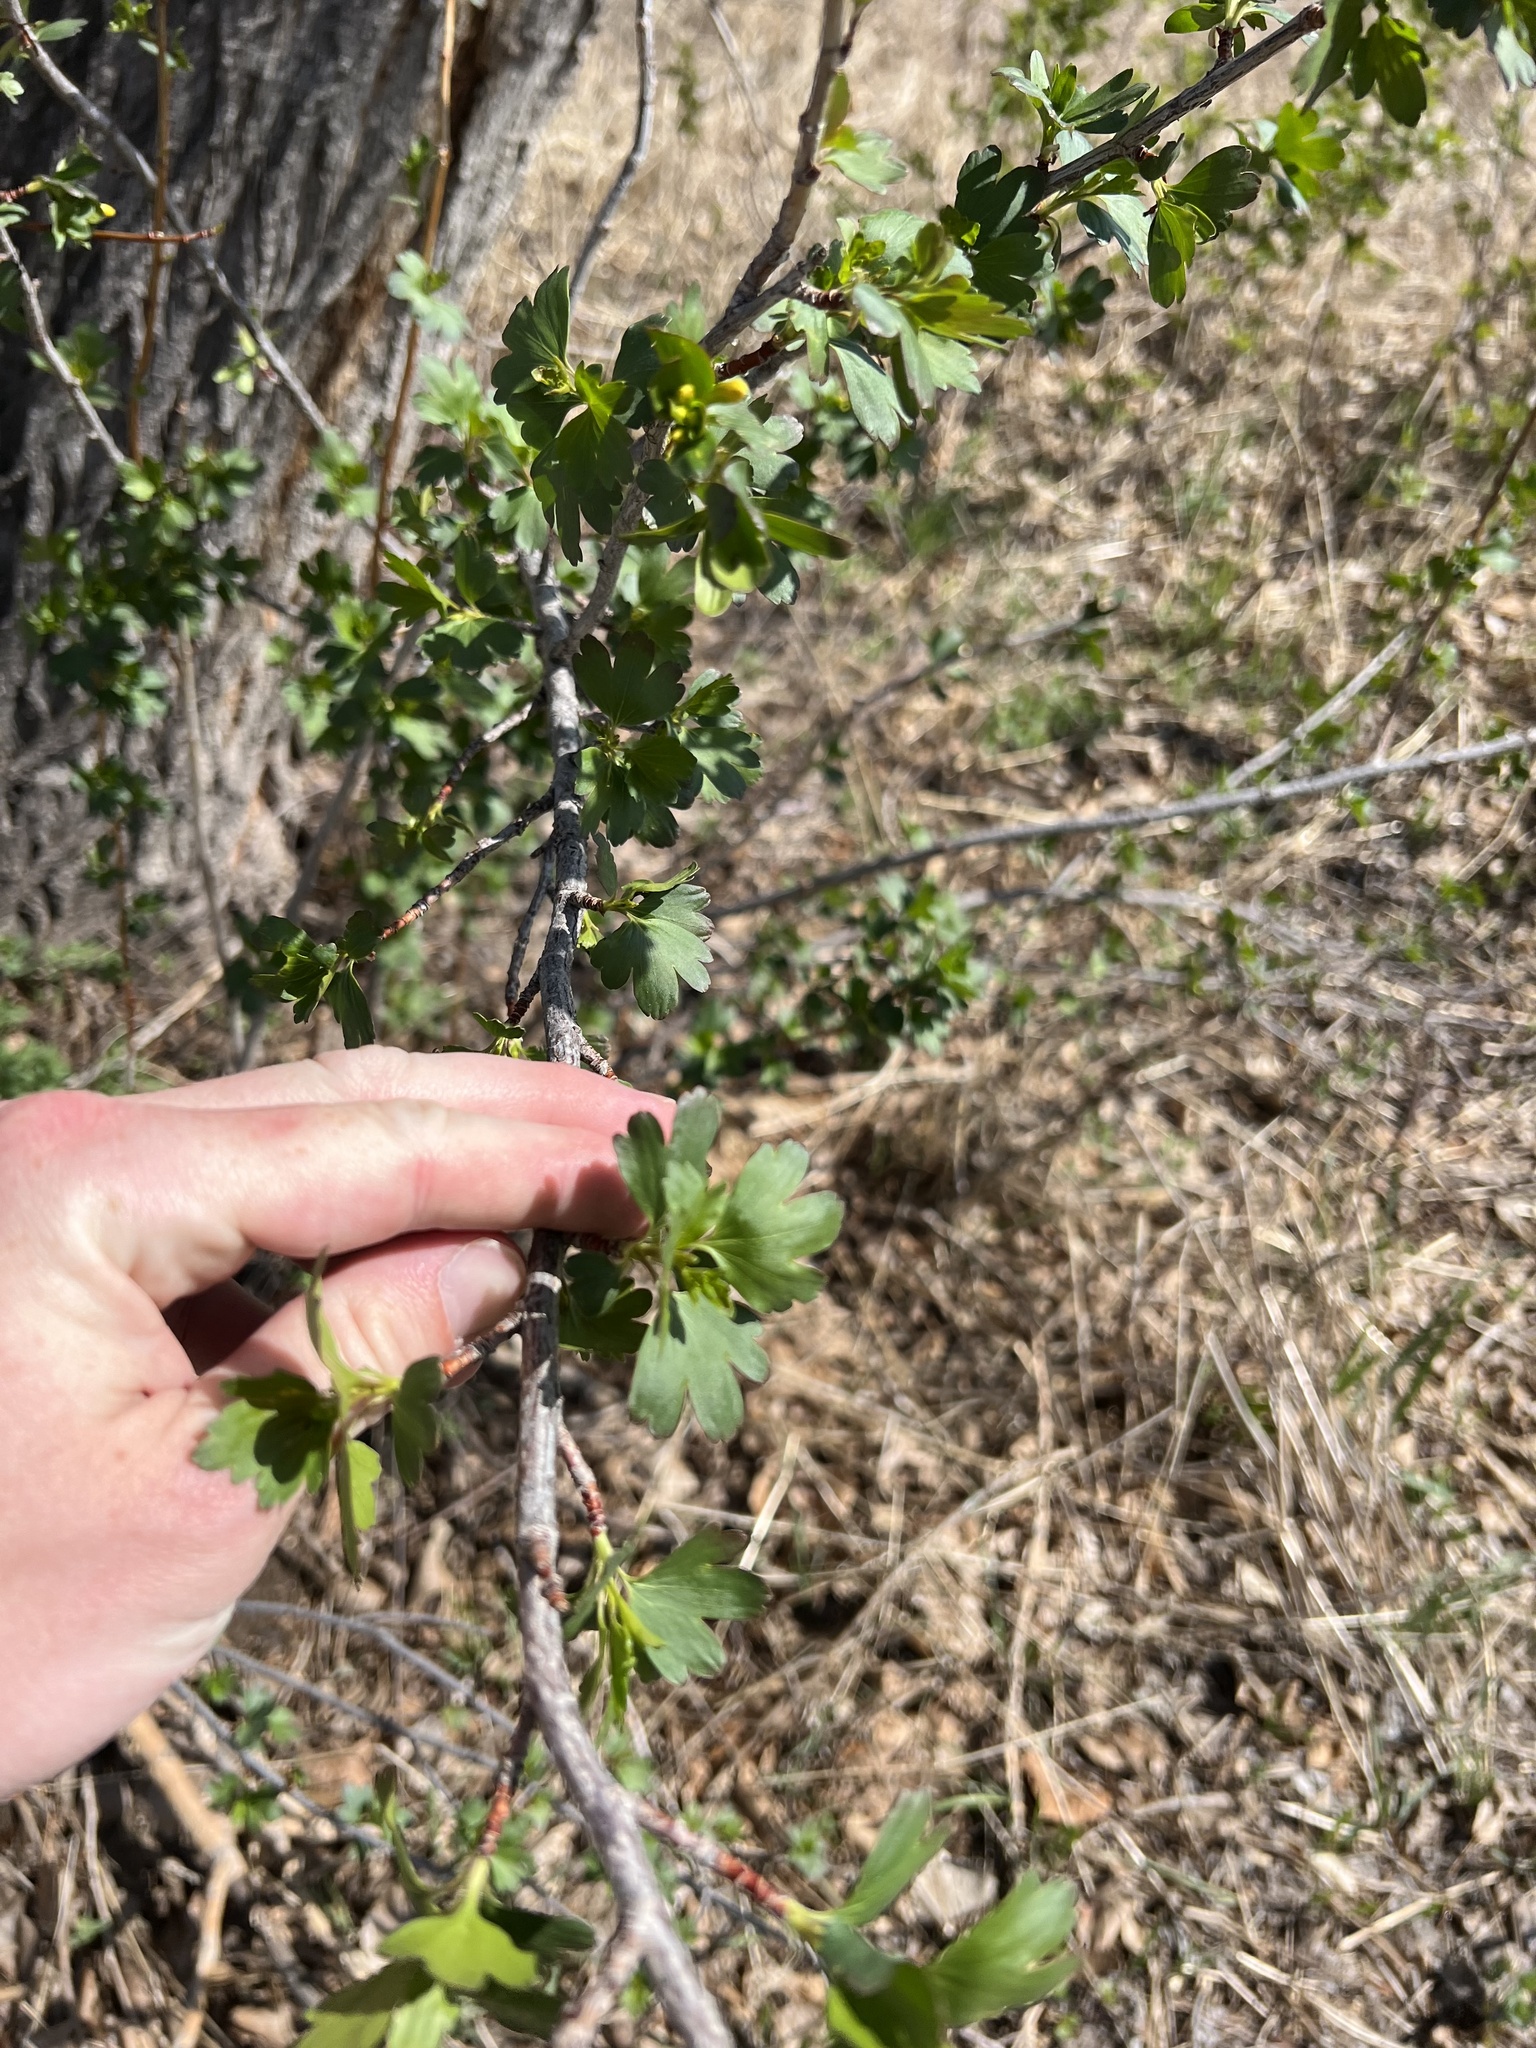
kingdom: Plantae
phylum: Tracheophyta
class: Magnoliopsida
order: Saxifragales
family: Grossulariaceae
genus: Ribes
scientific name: Ribes aureum
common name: Golden currant
